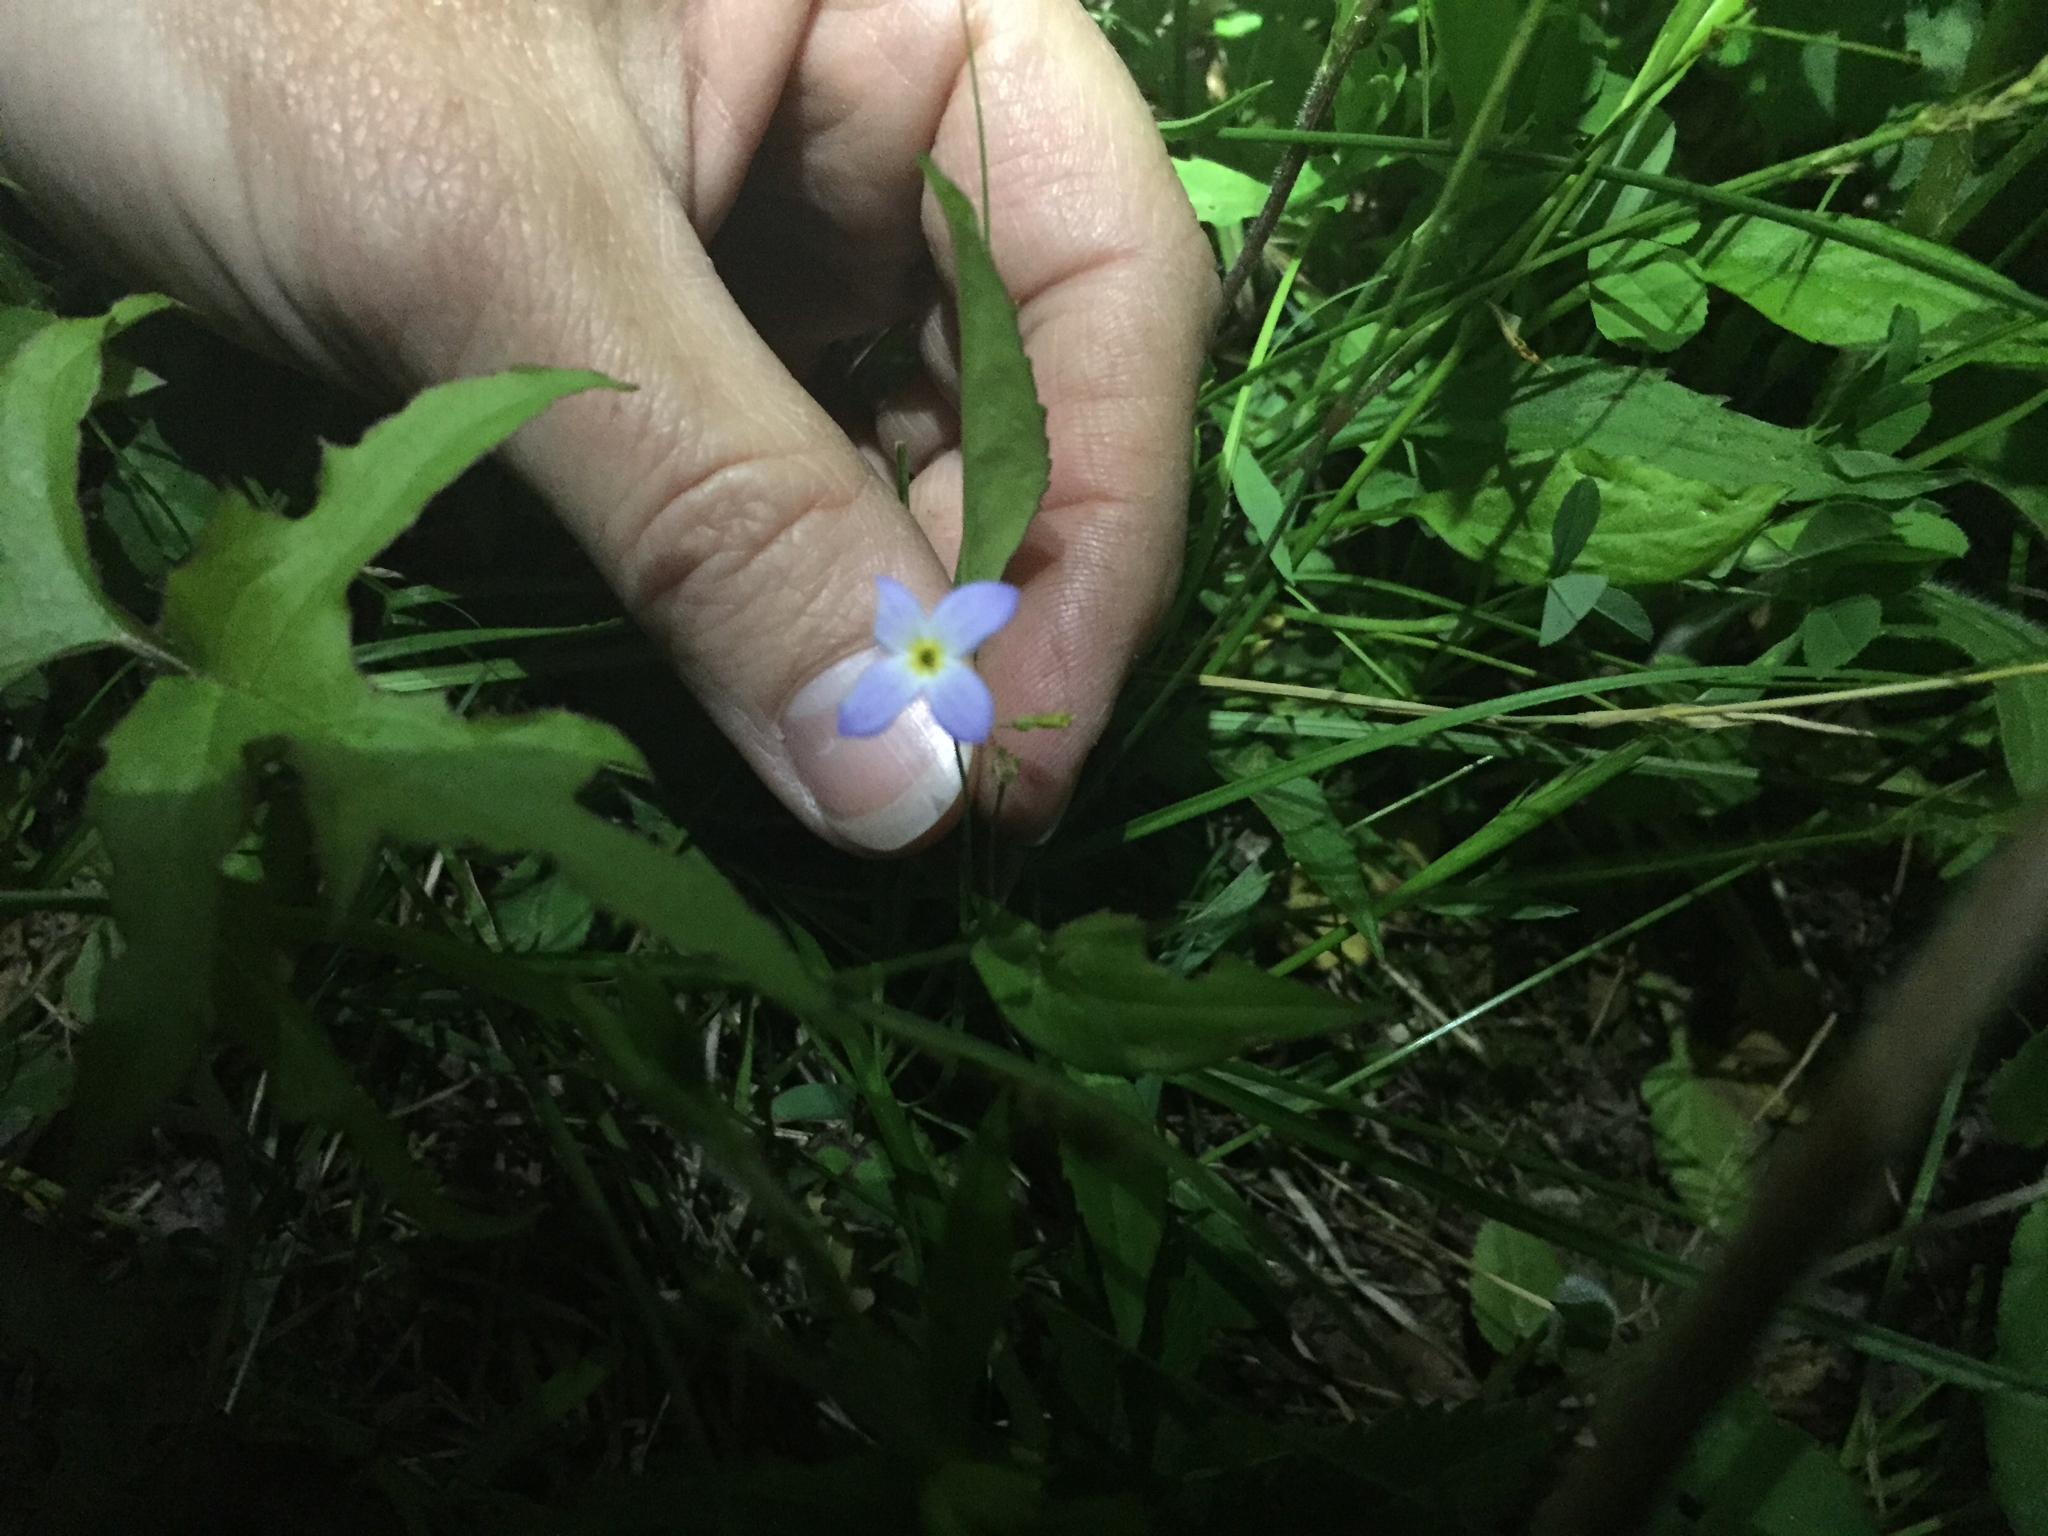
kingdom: Plantae
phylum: Tracheophyta
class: Magnoliopsida
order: Gentianales
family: Rubiaceae
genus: Houstonia
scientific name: Houstonia caerulea
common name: Bluets
